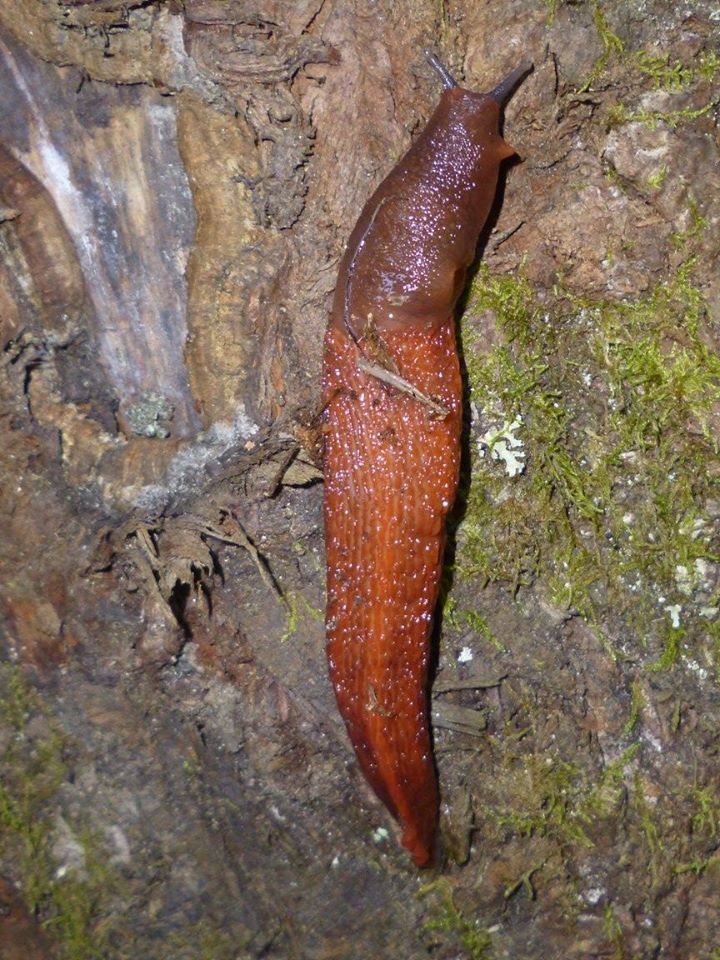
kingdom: Animalia
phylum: Mollusca
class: Gastropoda
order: Stylommatophora
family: Limacidae
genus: Limax
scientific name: Limax dacampi
